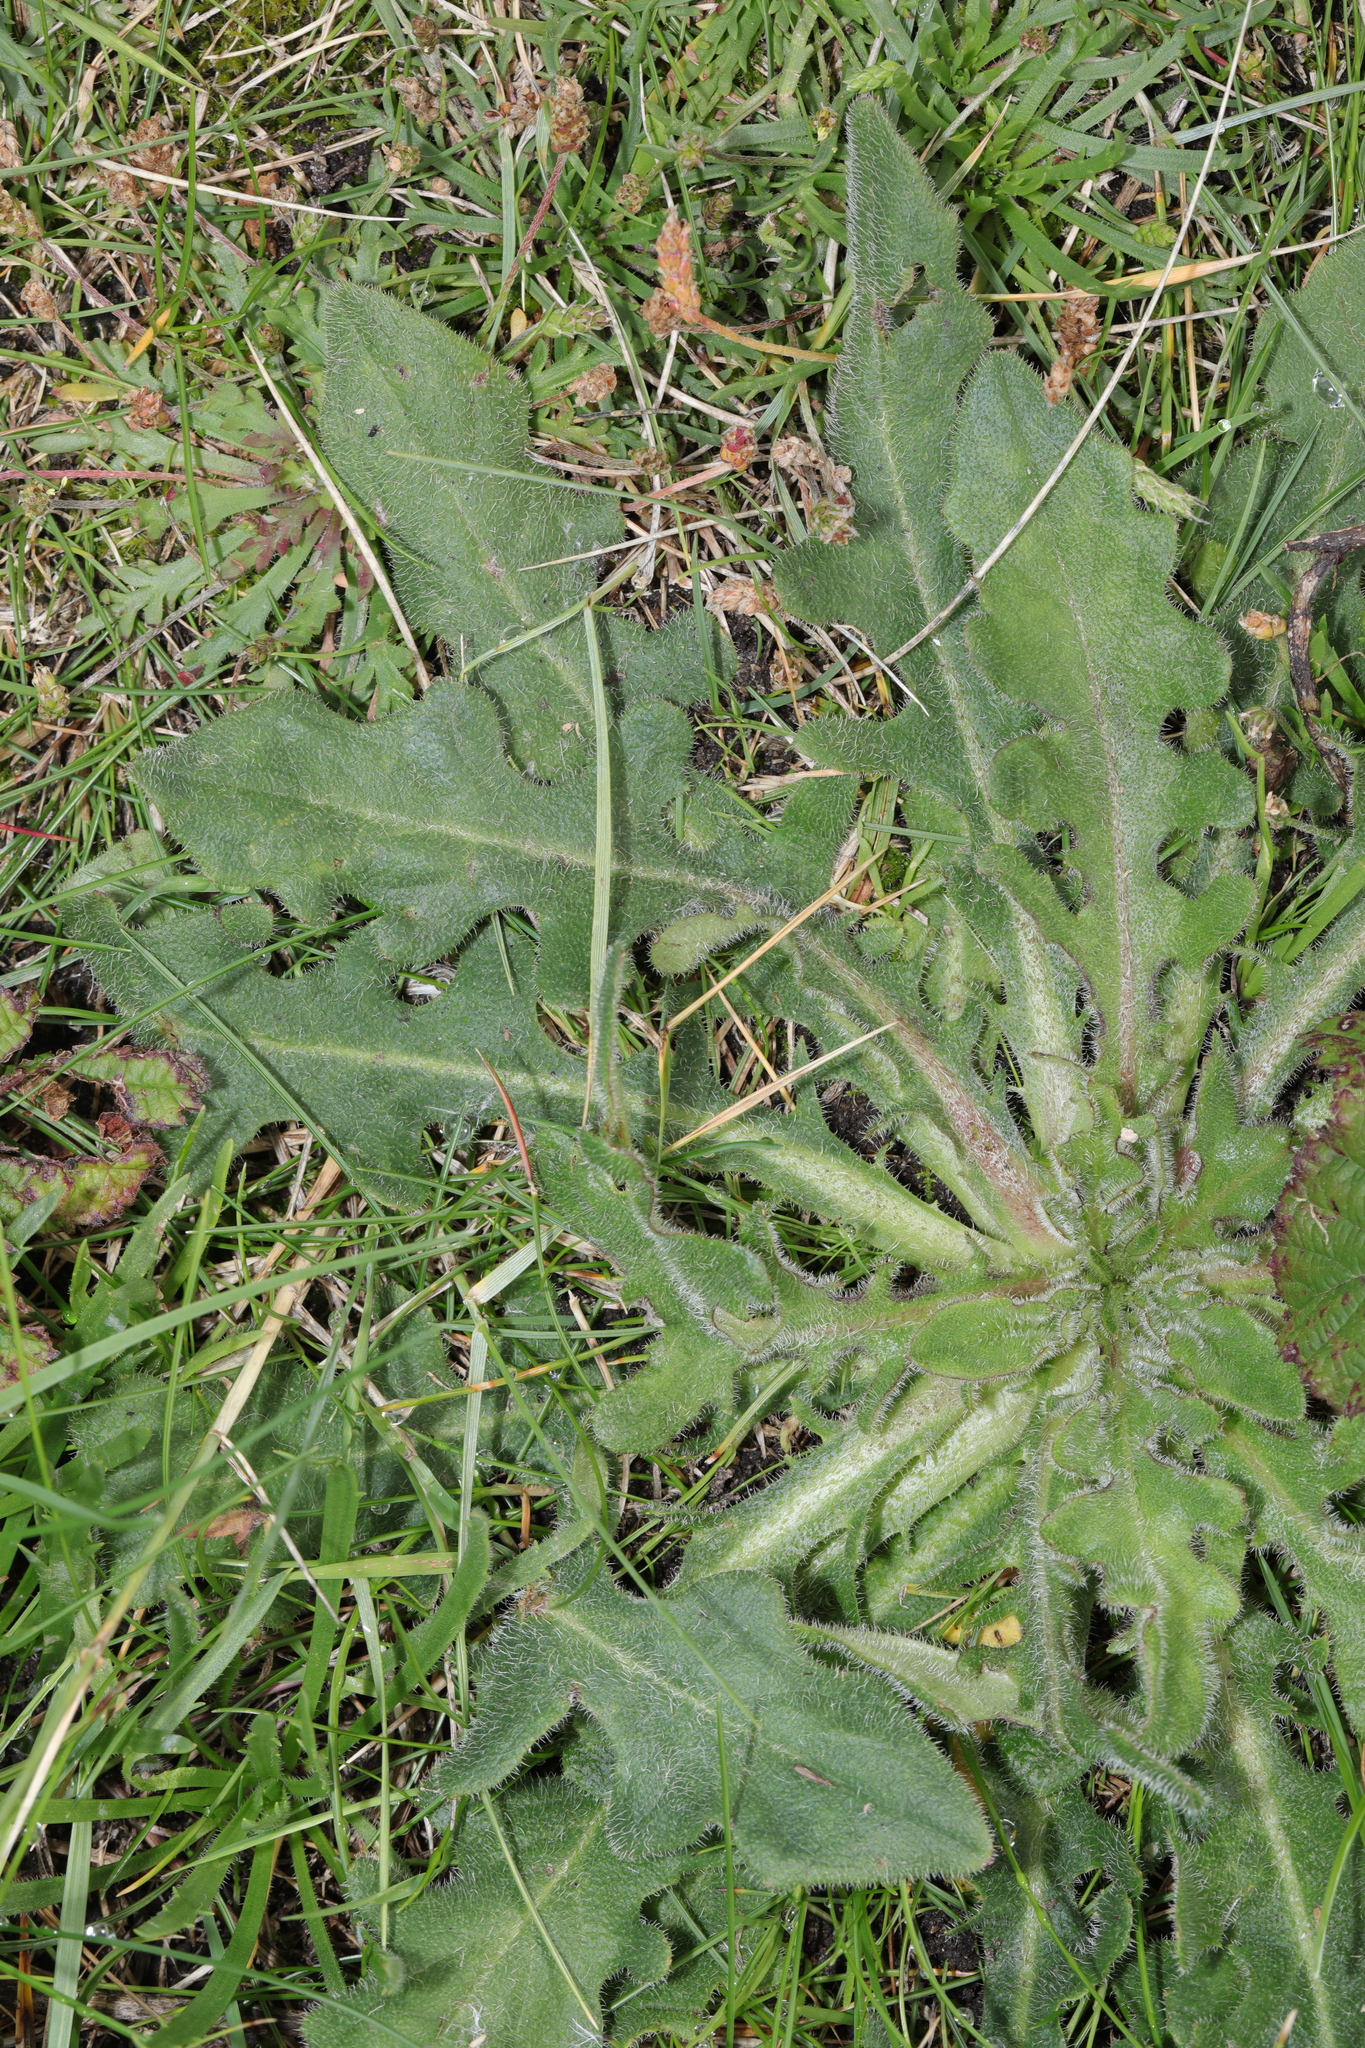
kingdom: Plantae
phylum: Tracheophyta
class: Magnoliopsida
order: Asterales
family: Asteraceae
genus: Hypochaeris
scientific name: Hypochaeris radicata
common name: Flatweed
